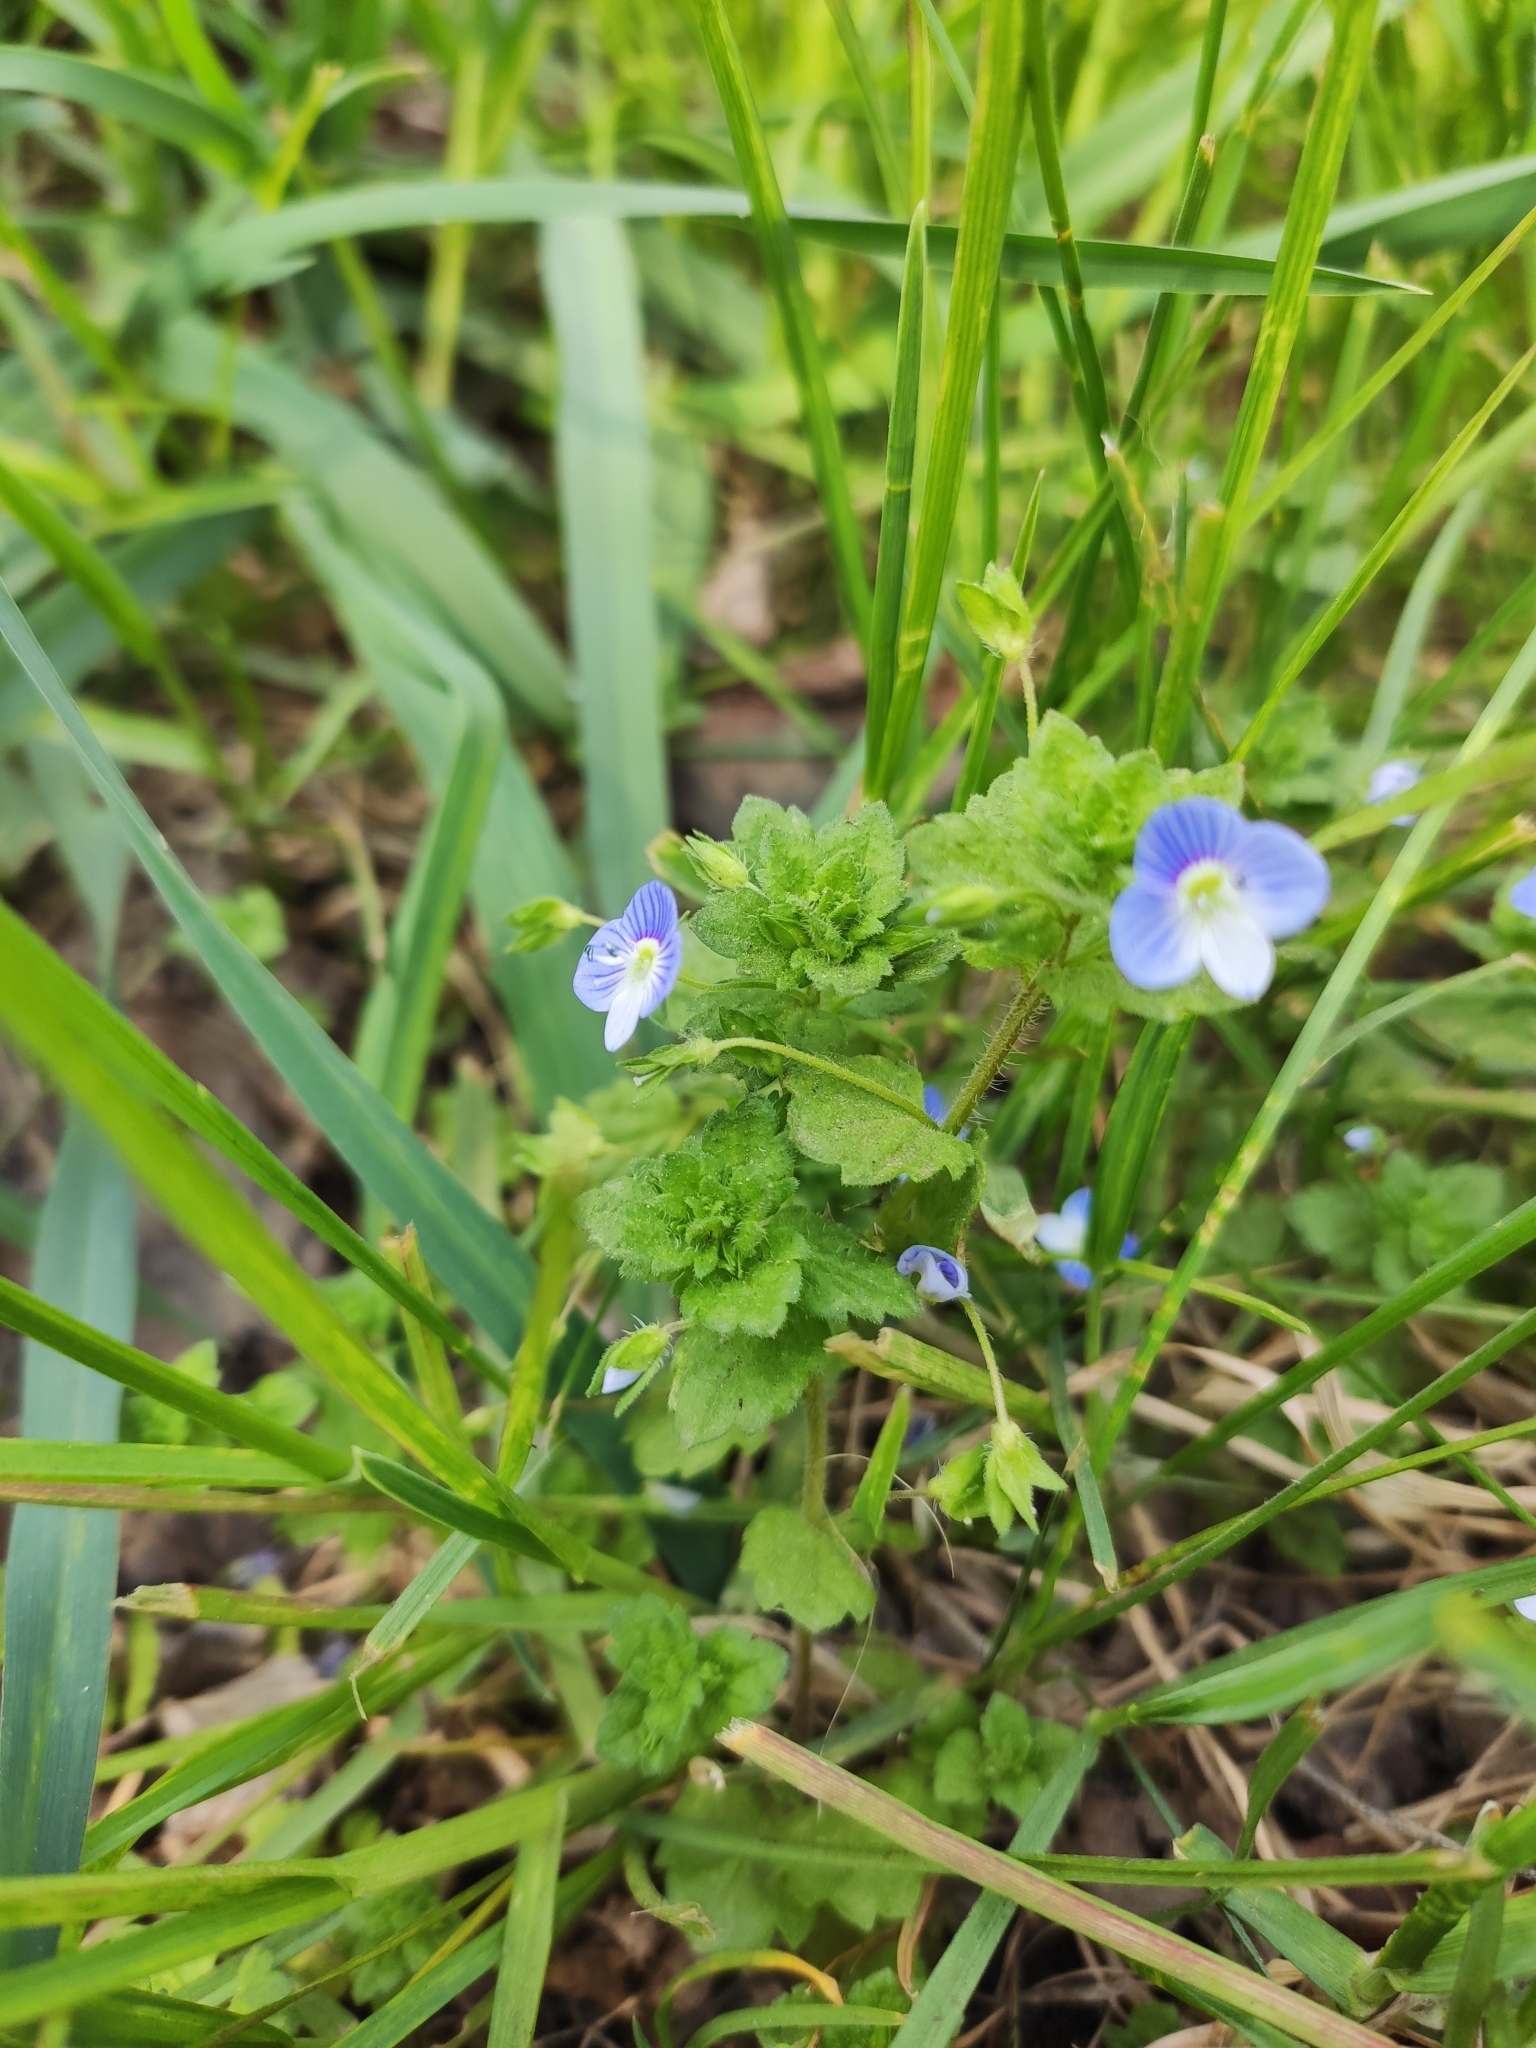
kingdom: Plantae
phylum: Tracheophyta
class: Magnoliopsida
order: Lamiales
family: Plantaginaceae
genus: Veronica
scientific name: Veronica persica
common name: Common field-speedwell
